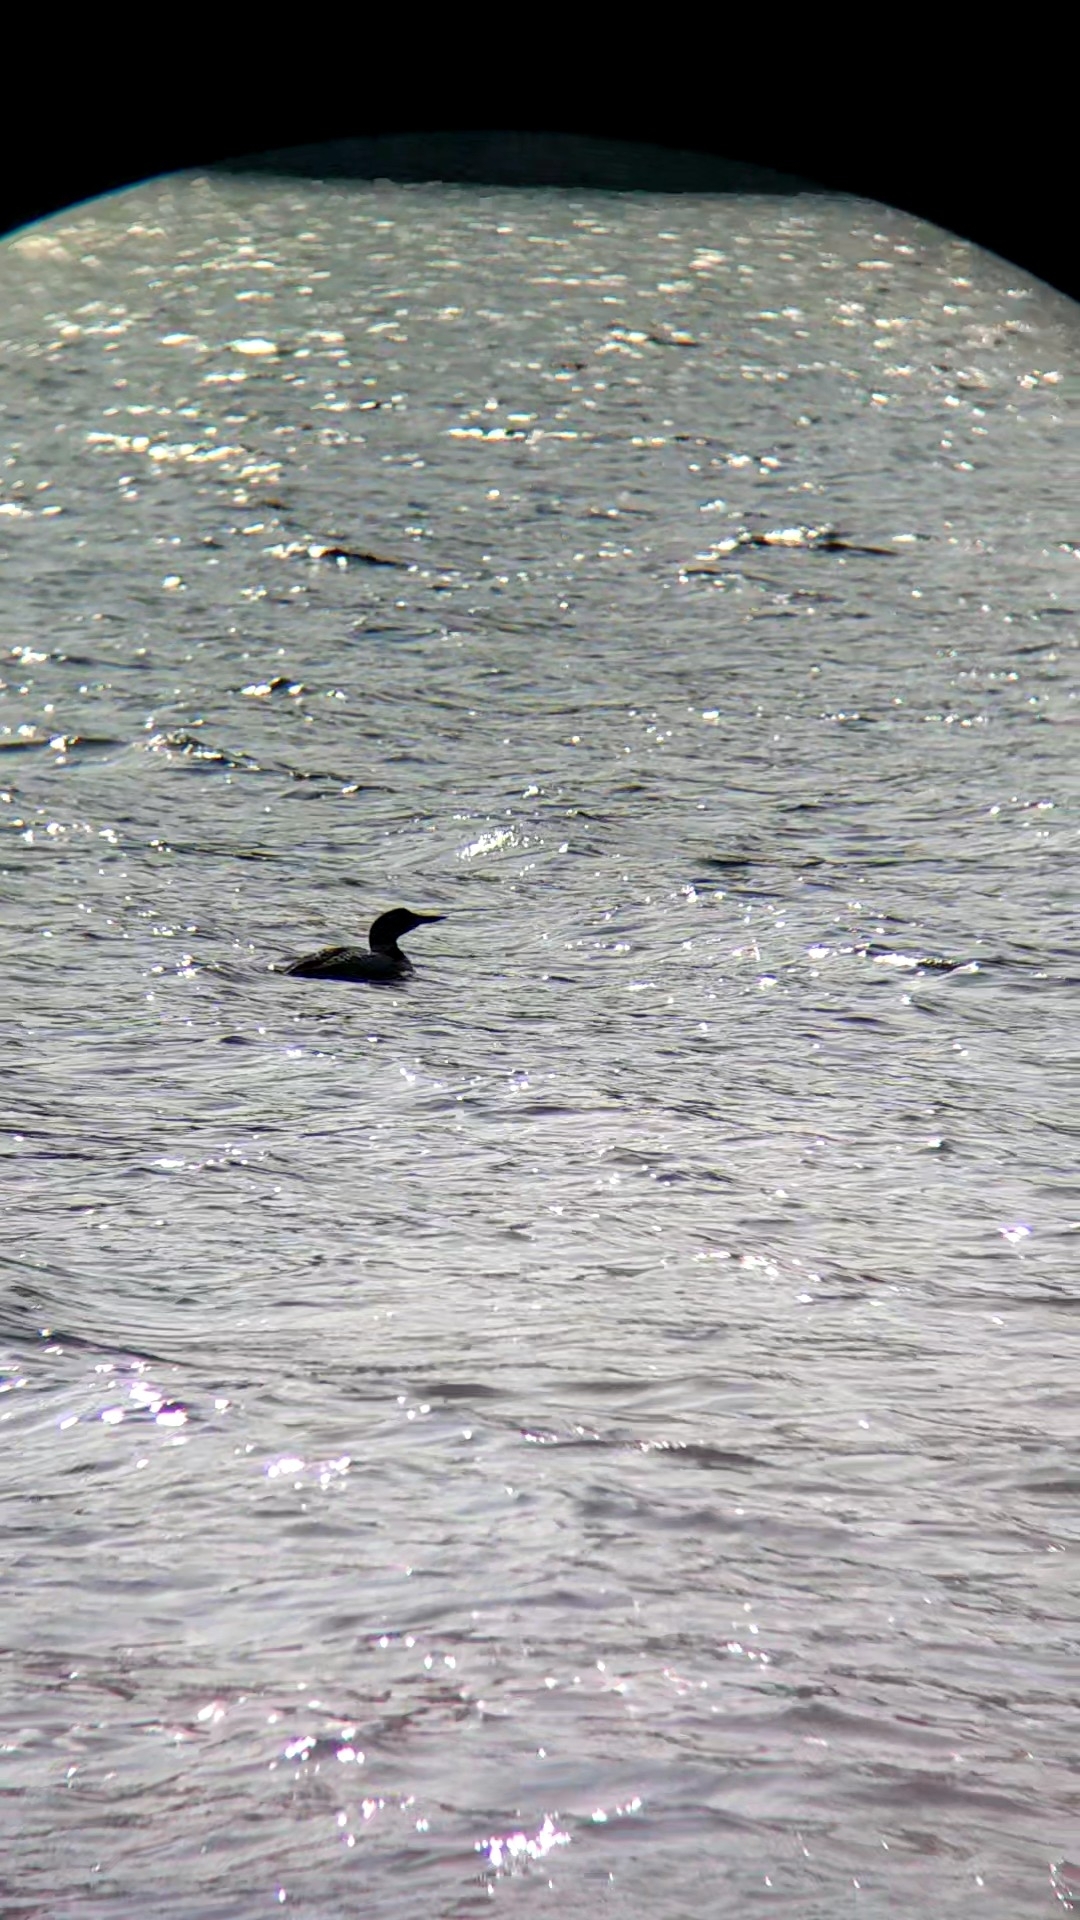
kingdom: Animalia
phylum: Chordata
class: Aves
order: Gaviiformes
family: Gaviidae
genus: Gavia
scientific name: Gavia immer
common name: Common loon
